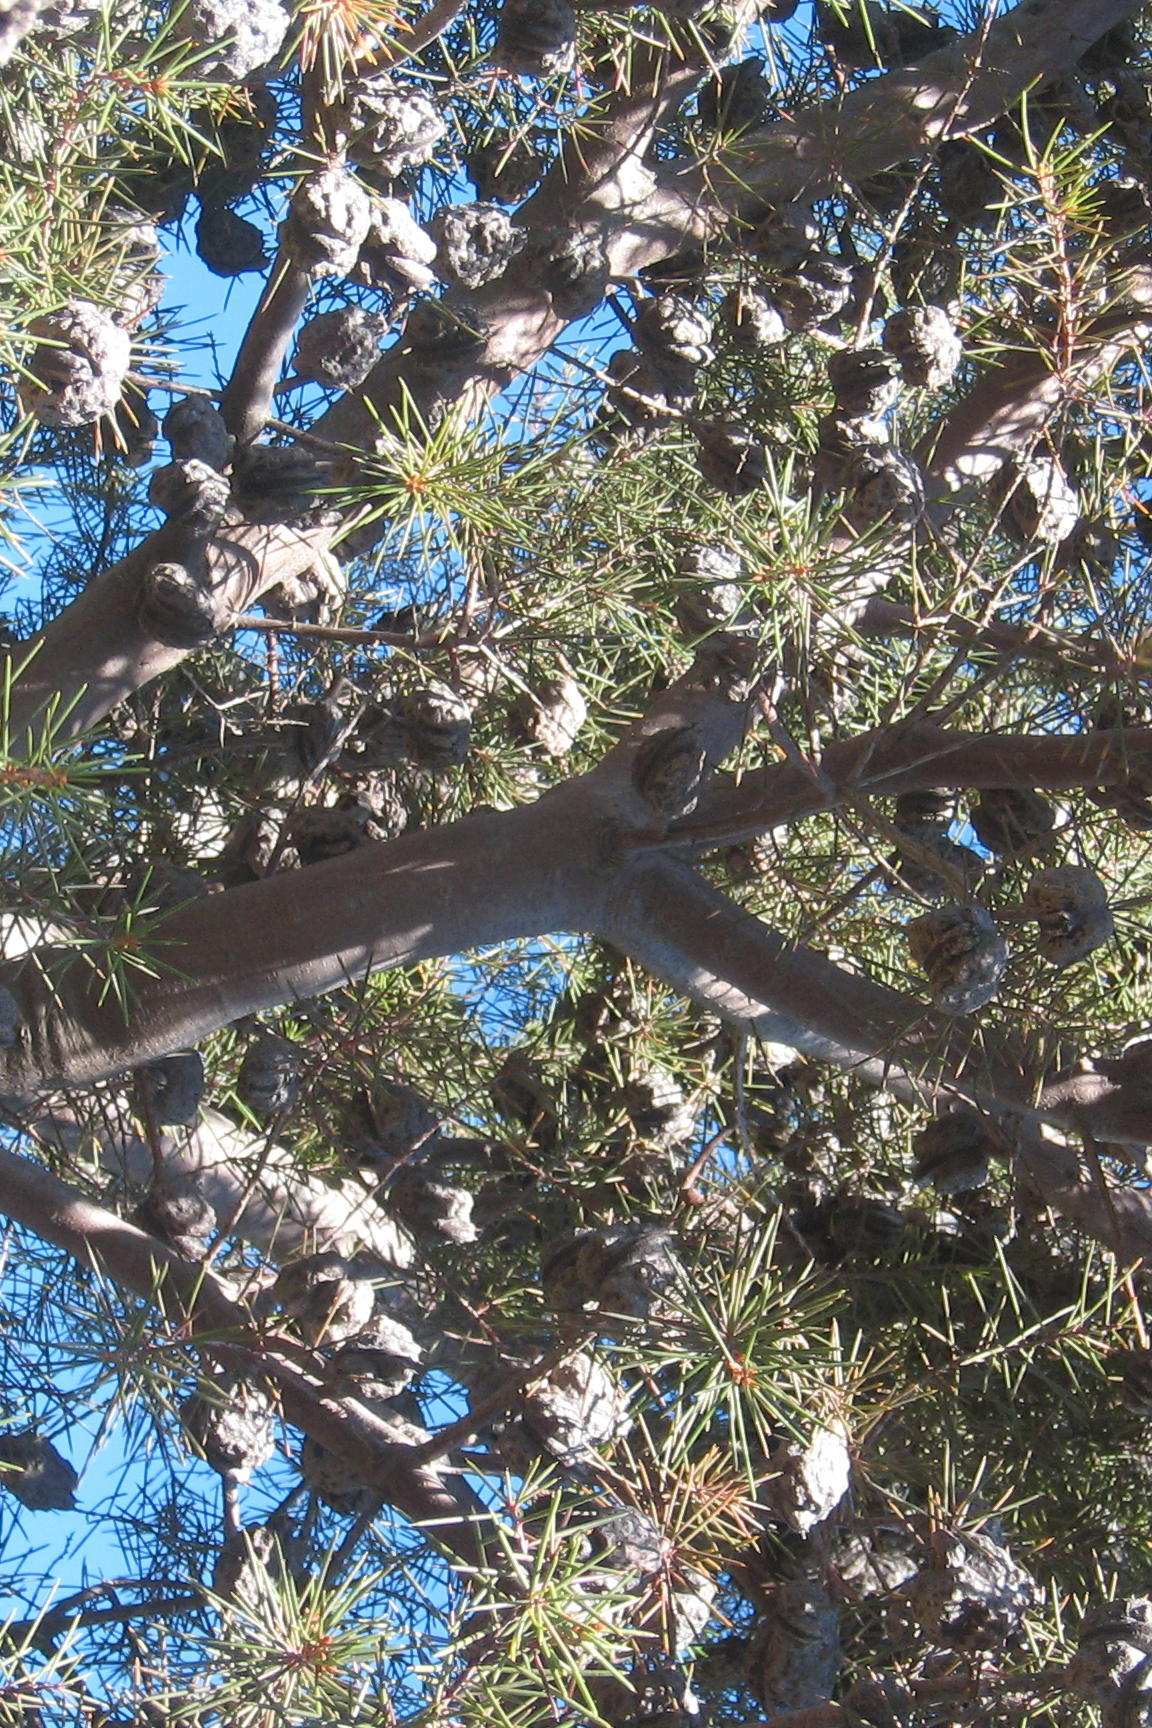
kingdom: Plantae
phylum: Tracheophyta
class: Magnoliopsida
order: Proteales
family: Proteaceae
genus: Hakea
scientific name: Hakea sericea
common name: Needle bush
